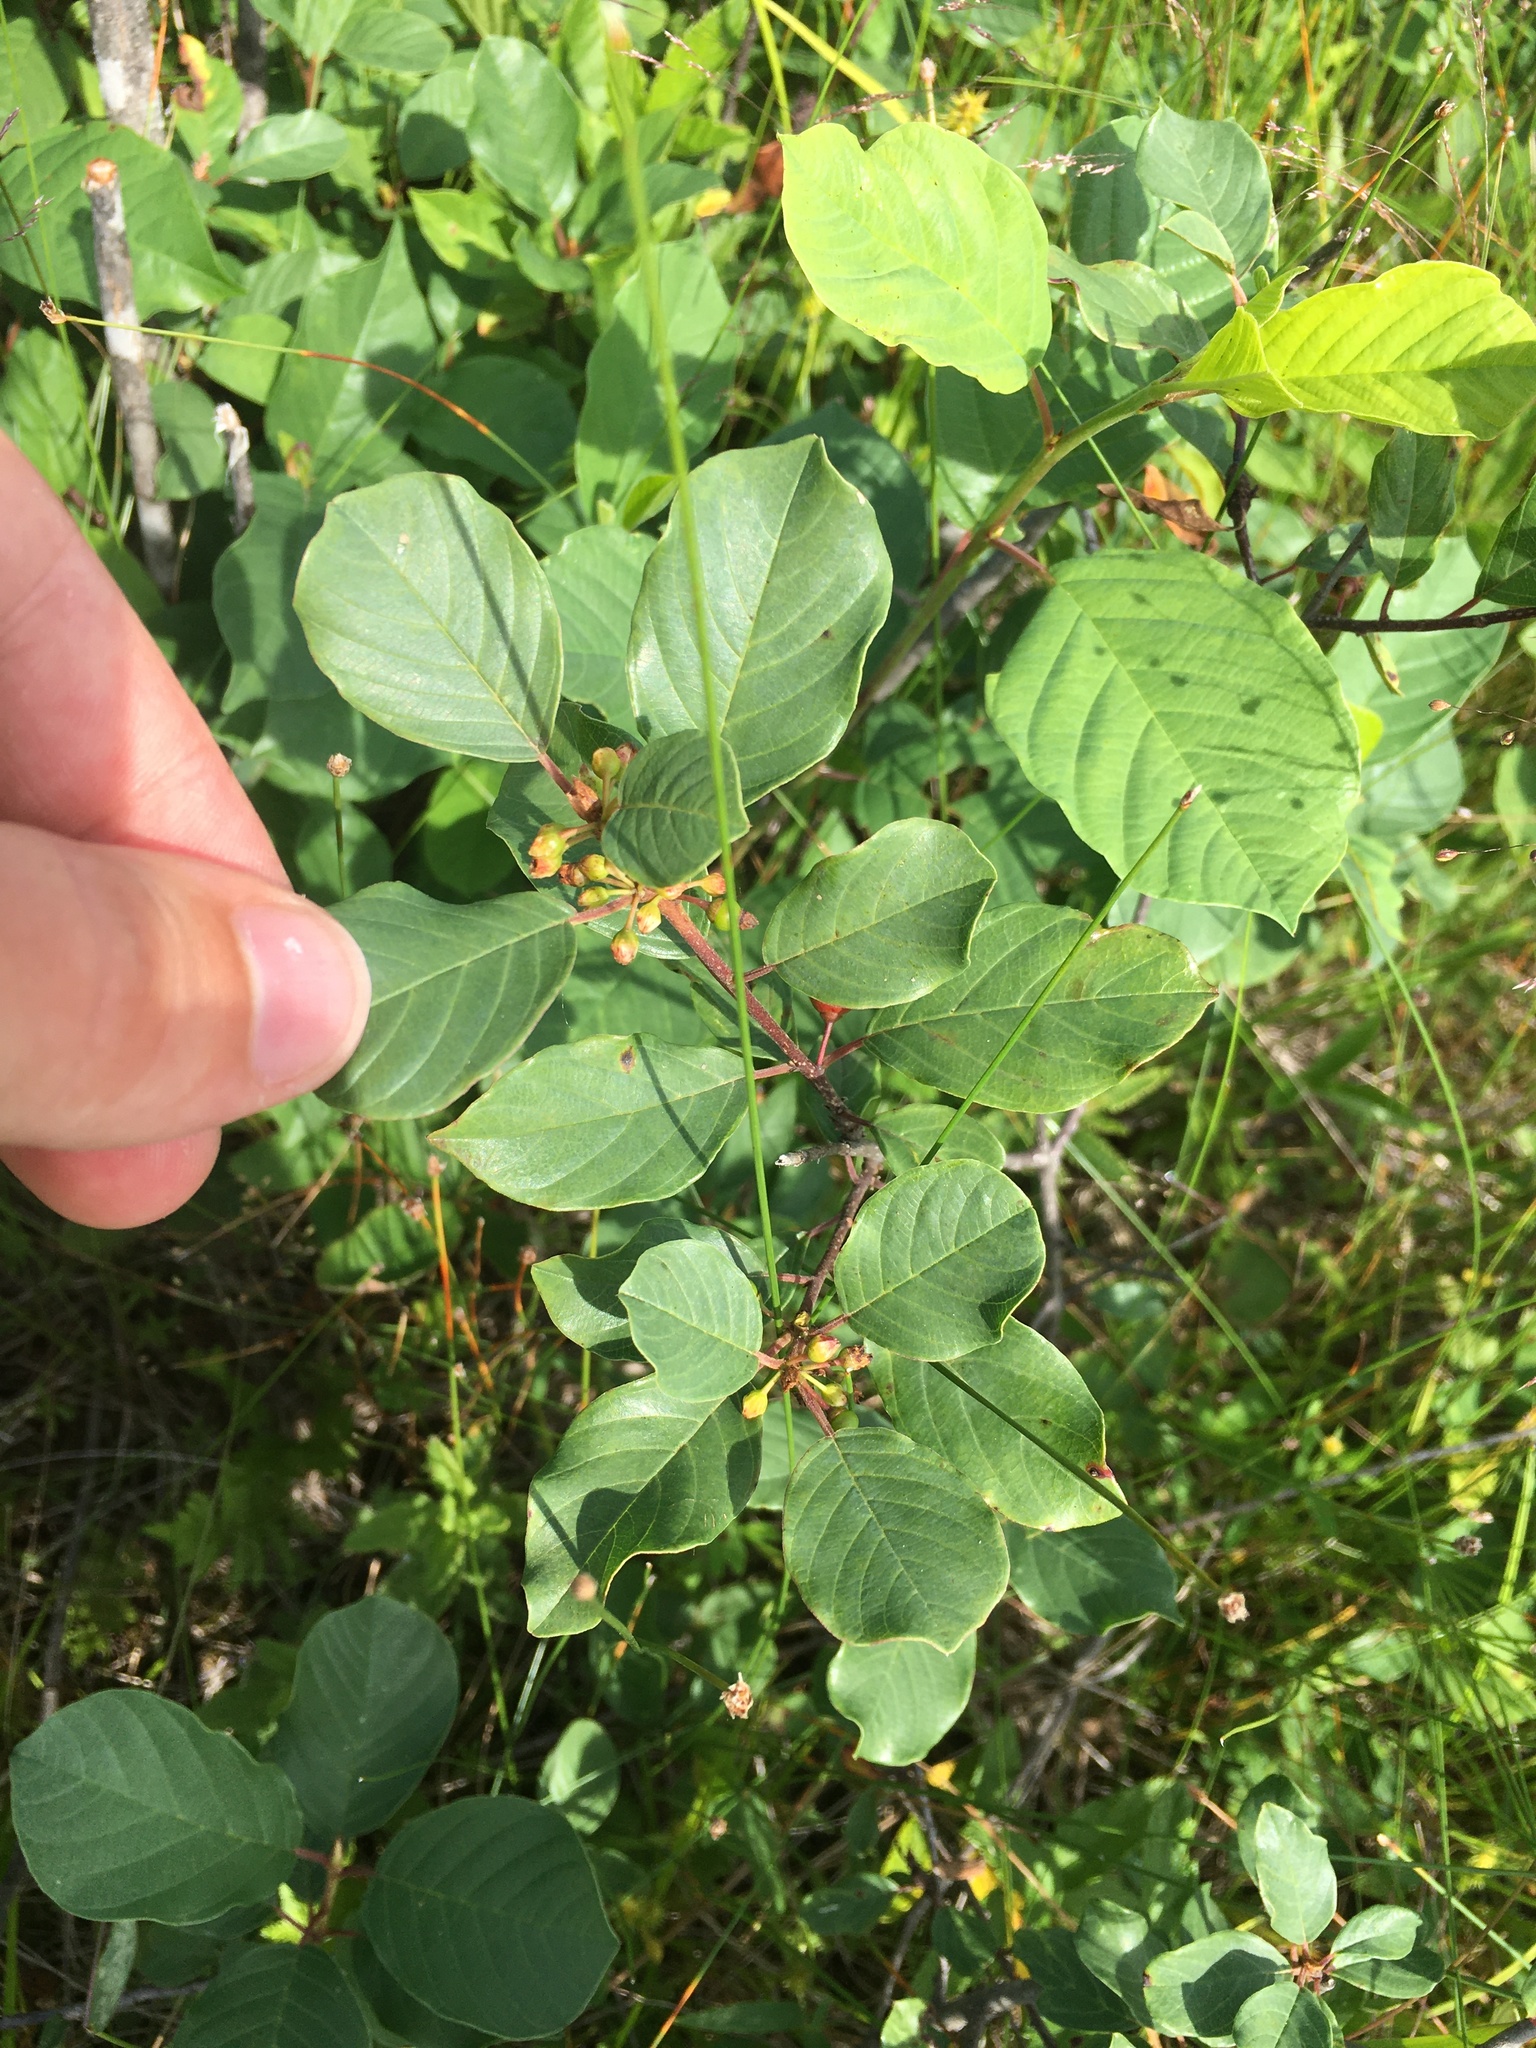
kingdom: Plantae
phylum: Tracheophyta
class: Magnoliopsida
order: Rosales
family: Rhamnaceae
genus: Frangula
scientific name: Frangula alnus
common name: Alder buckthorn
